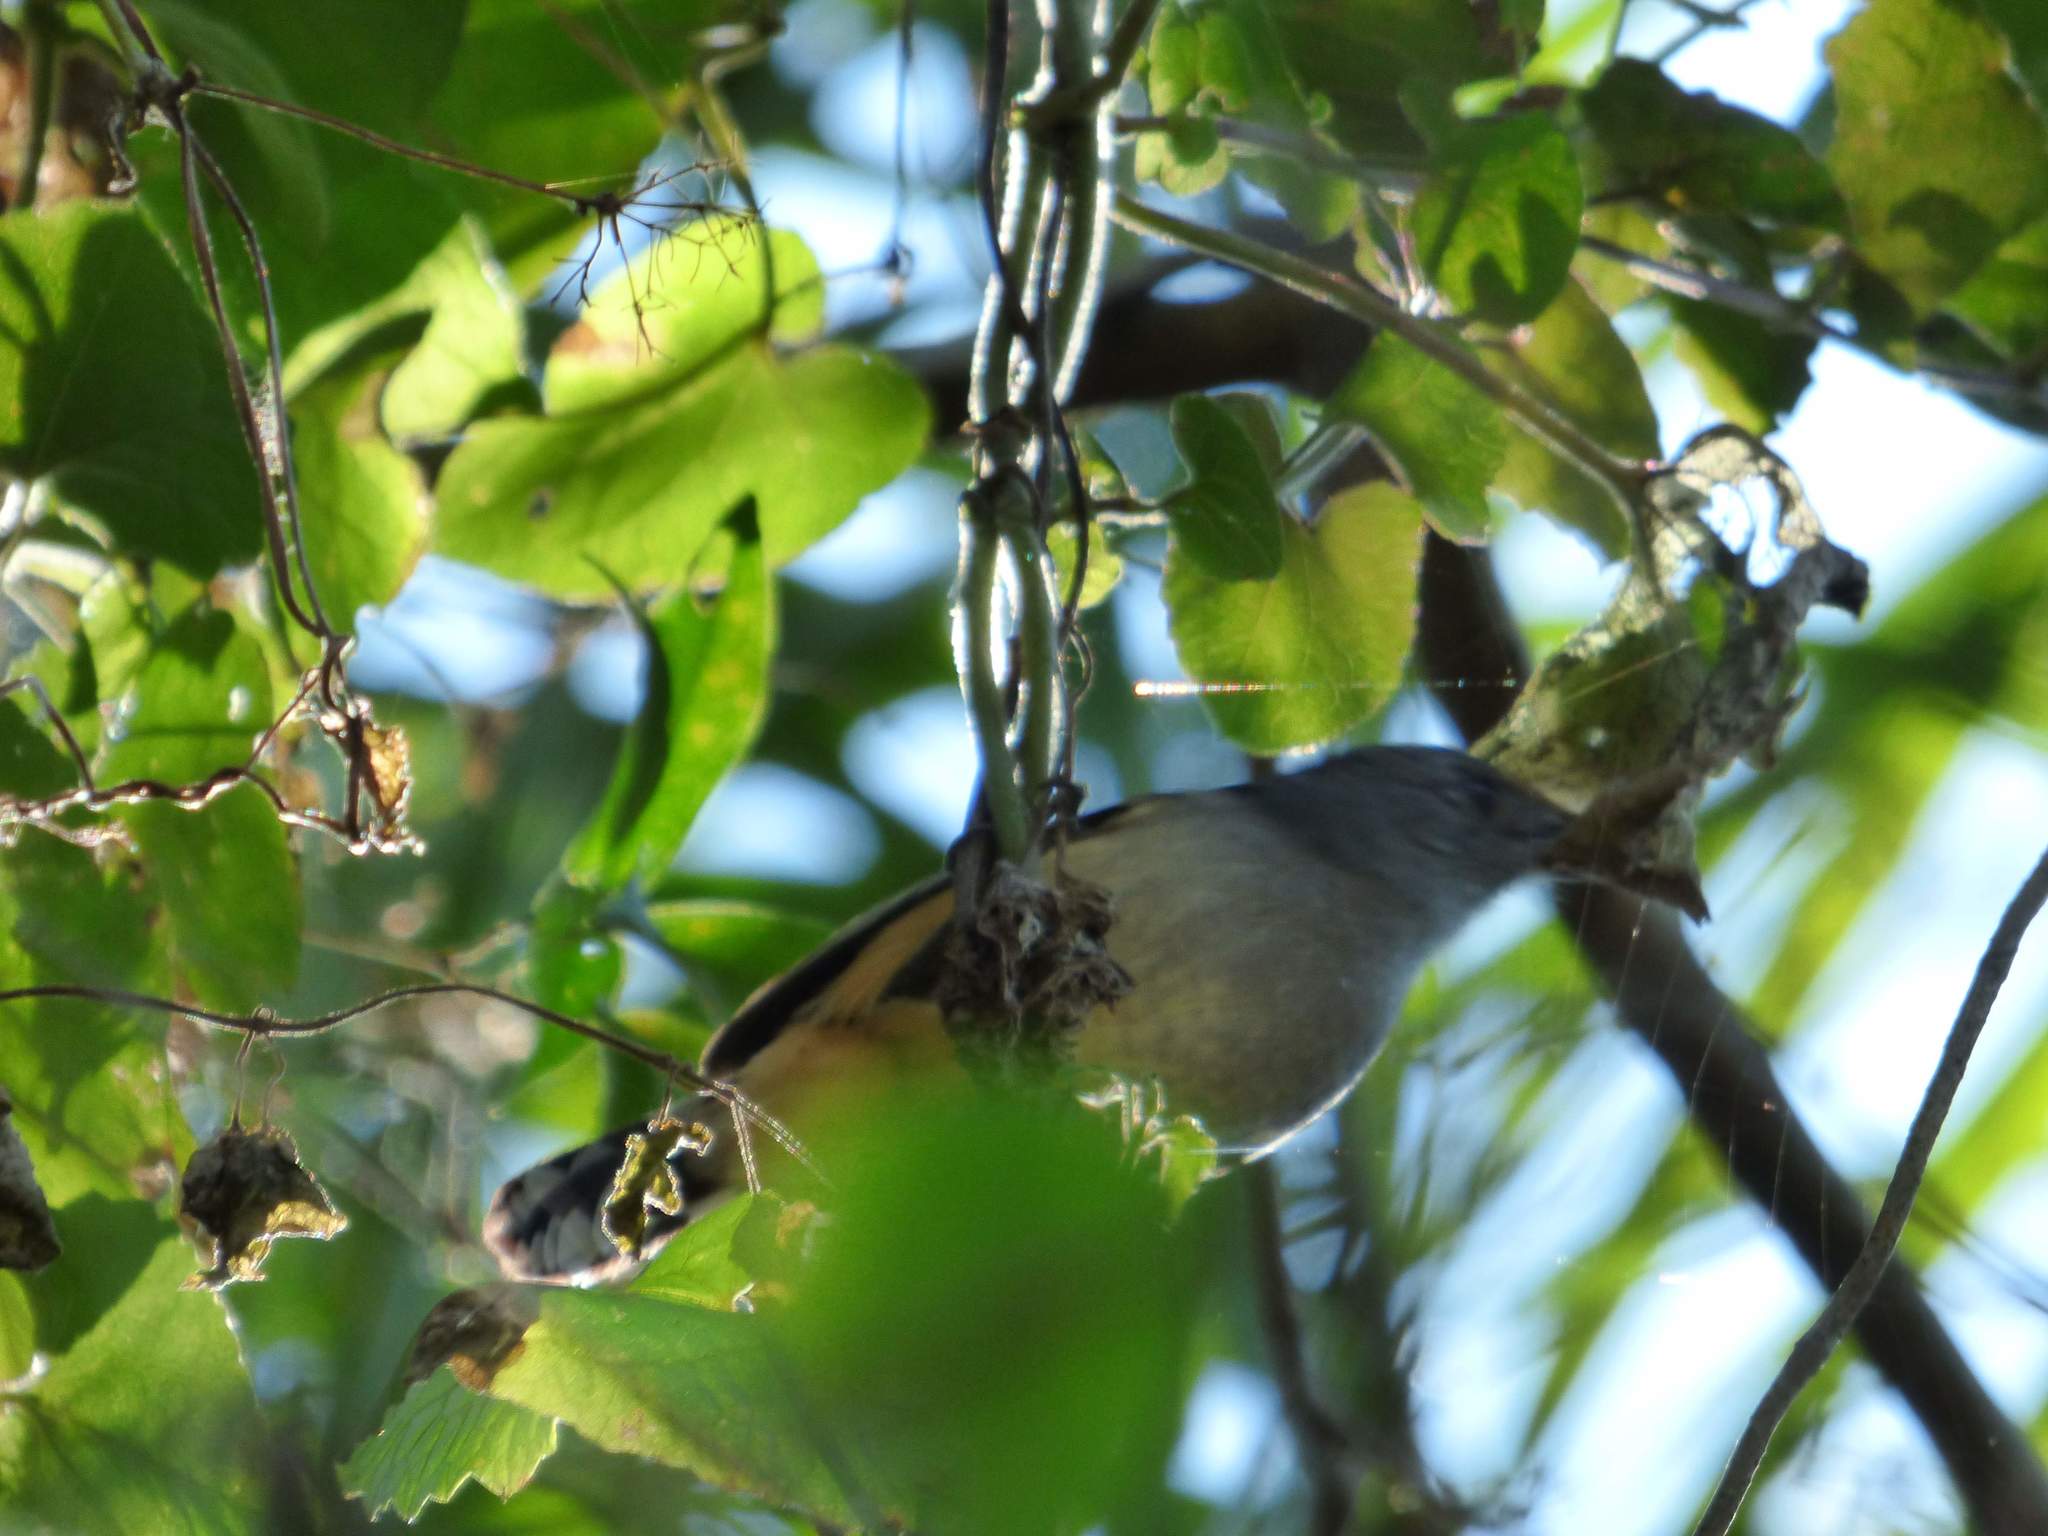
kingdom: Animalia
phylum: Chordata
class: Aves
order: Passeriformes
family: Thamnophilidae
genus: Thamnophilus
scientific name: Thamnophilus caerulescens
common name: Variable antshrike
